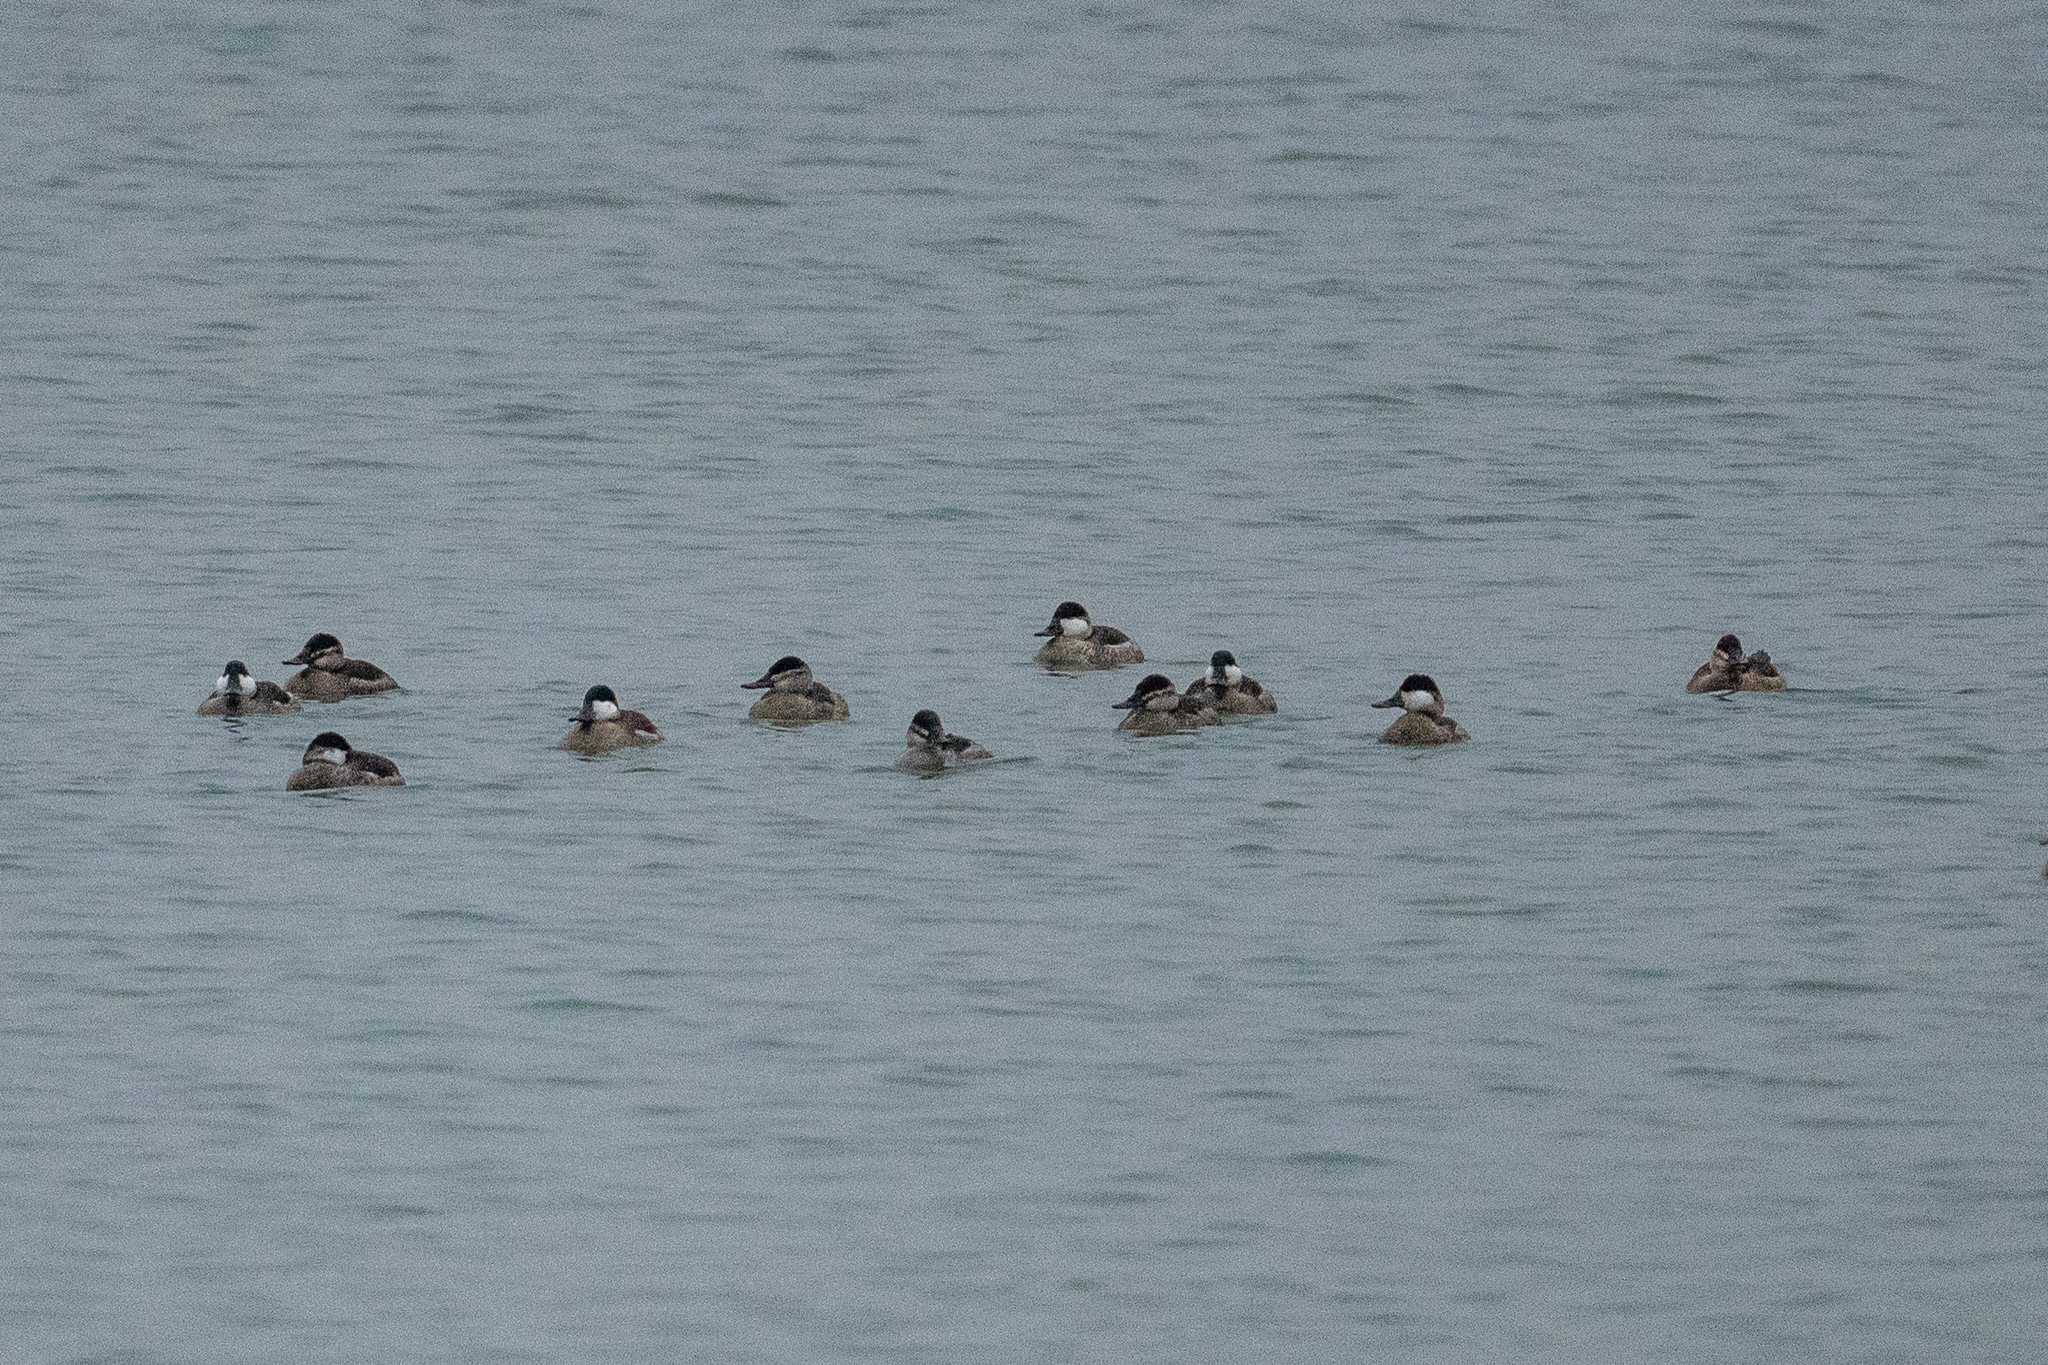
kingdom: Animalia
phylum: Chordata
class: Aves
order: Anseriformes
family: Anatidae
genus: Oxyura
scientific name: Oxyura jamaicensis
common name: Ruddy duck
